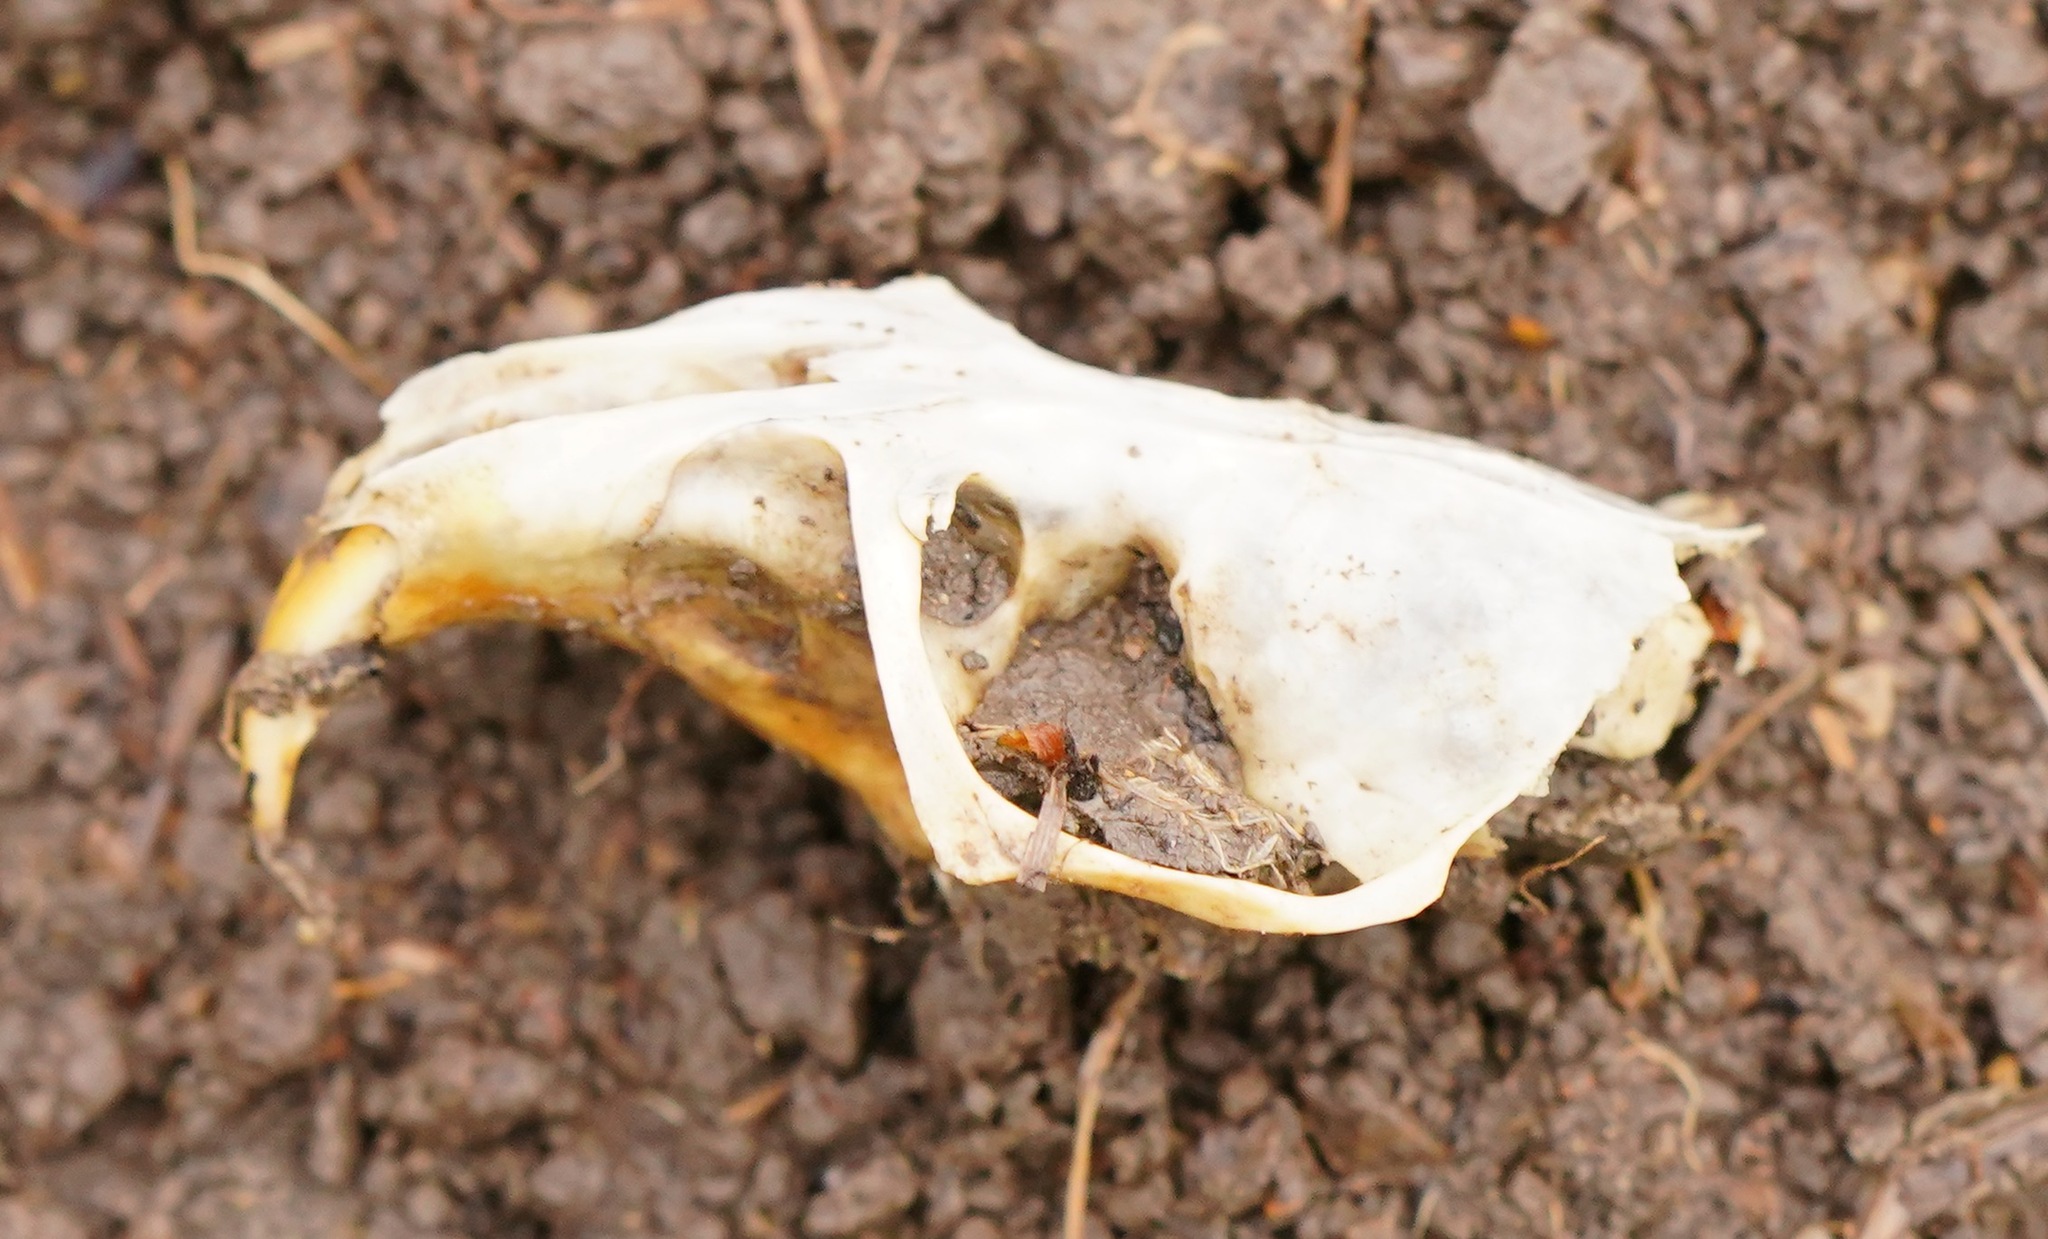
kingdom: Animalia
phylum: Chordata
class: Mammalia
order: Rodentia
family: Geomyidae
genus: Thomomys
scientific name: Thomomys bottae
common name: Botta's pocket gopher
